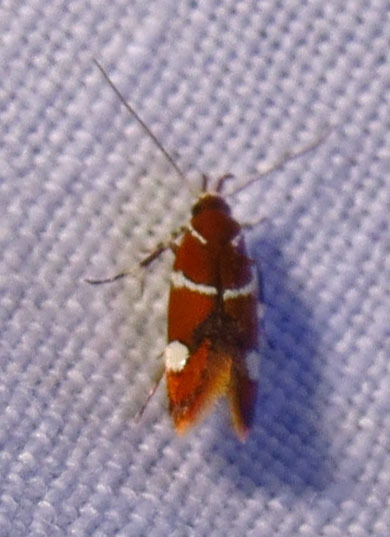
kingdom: Animalia
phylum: Arthropoda
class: Insecta
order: Lepidoptera
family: Oecophoridae
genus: Promalactis
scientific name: Promalactis suzukiella
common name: Moth
